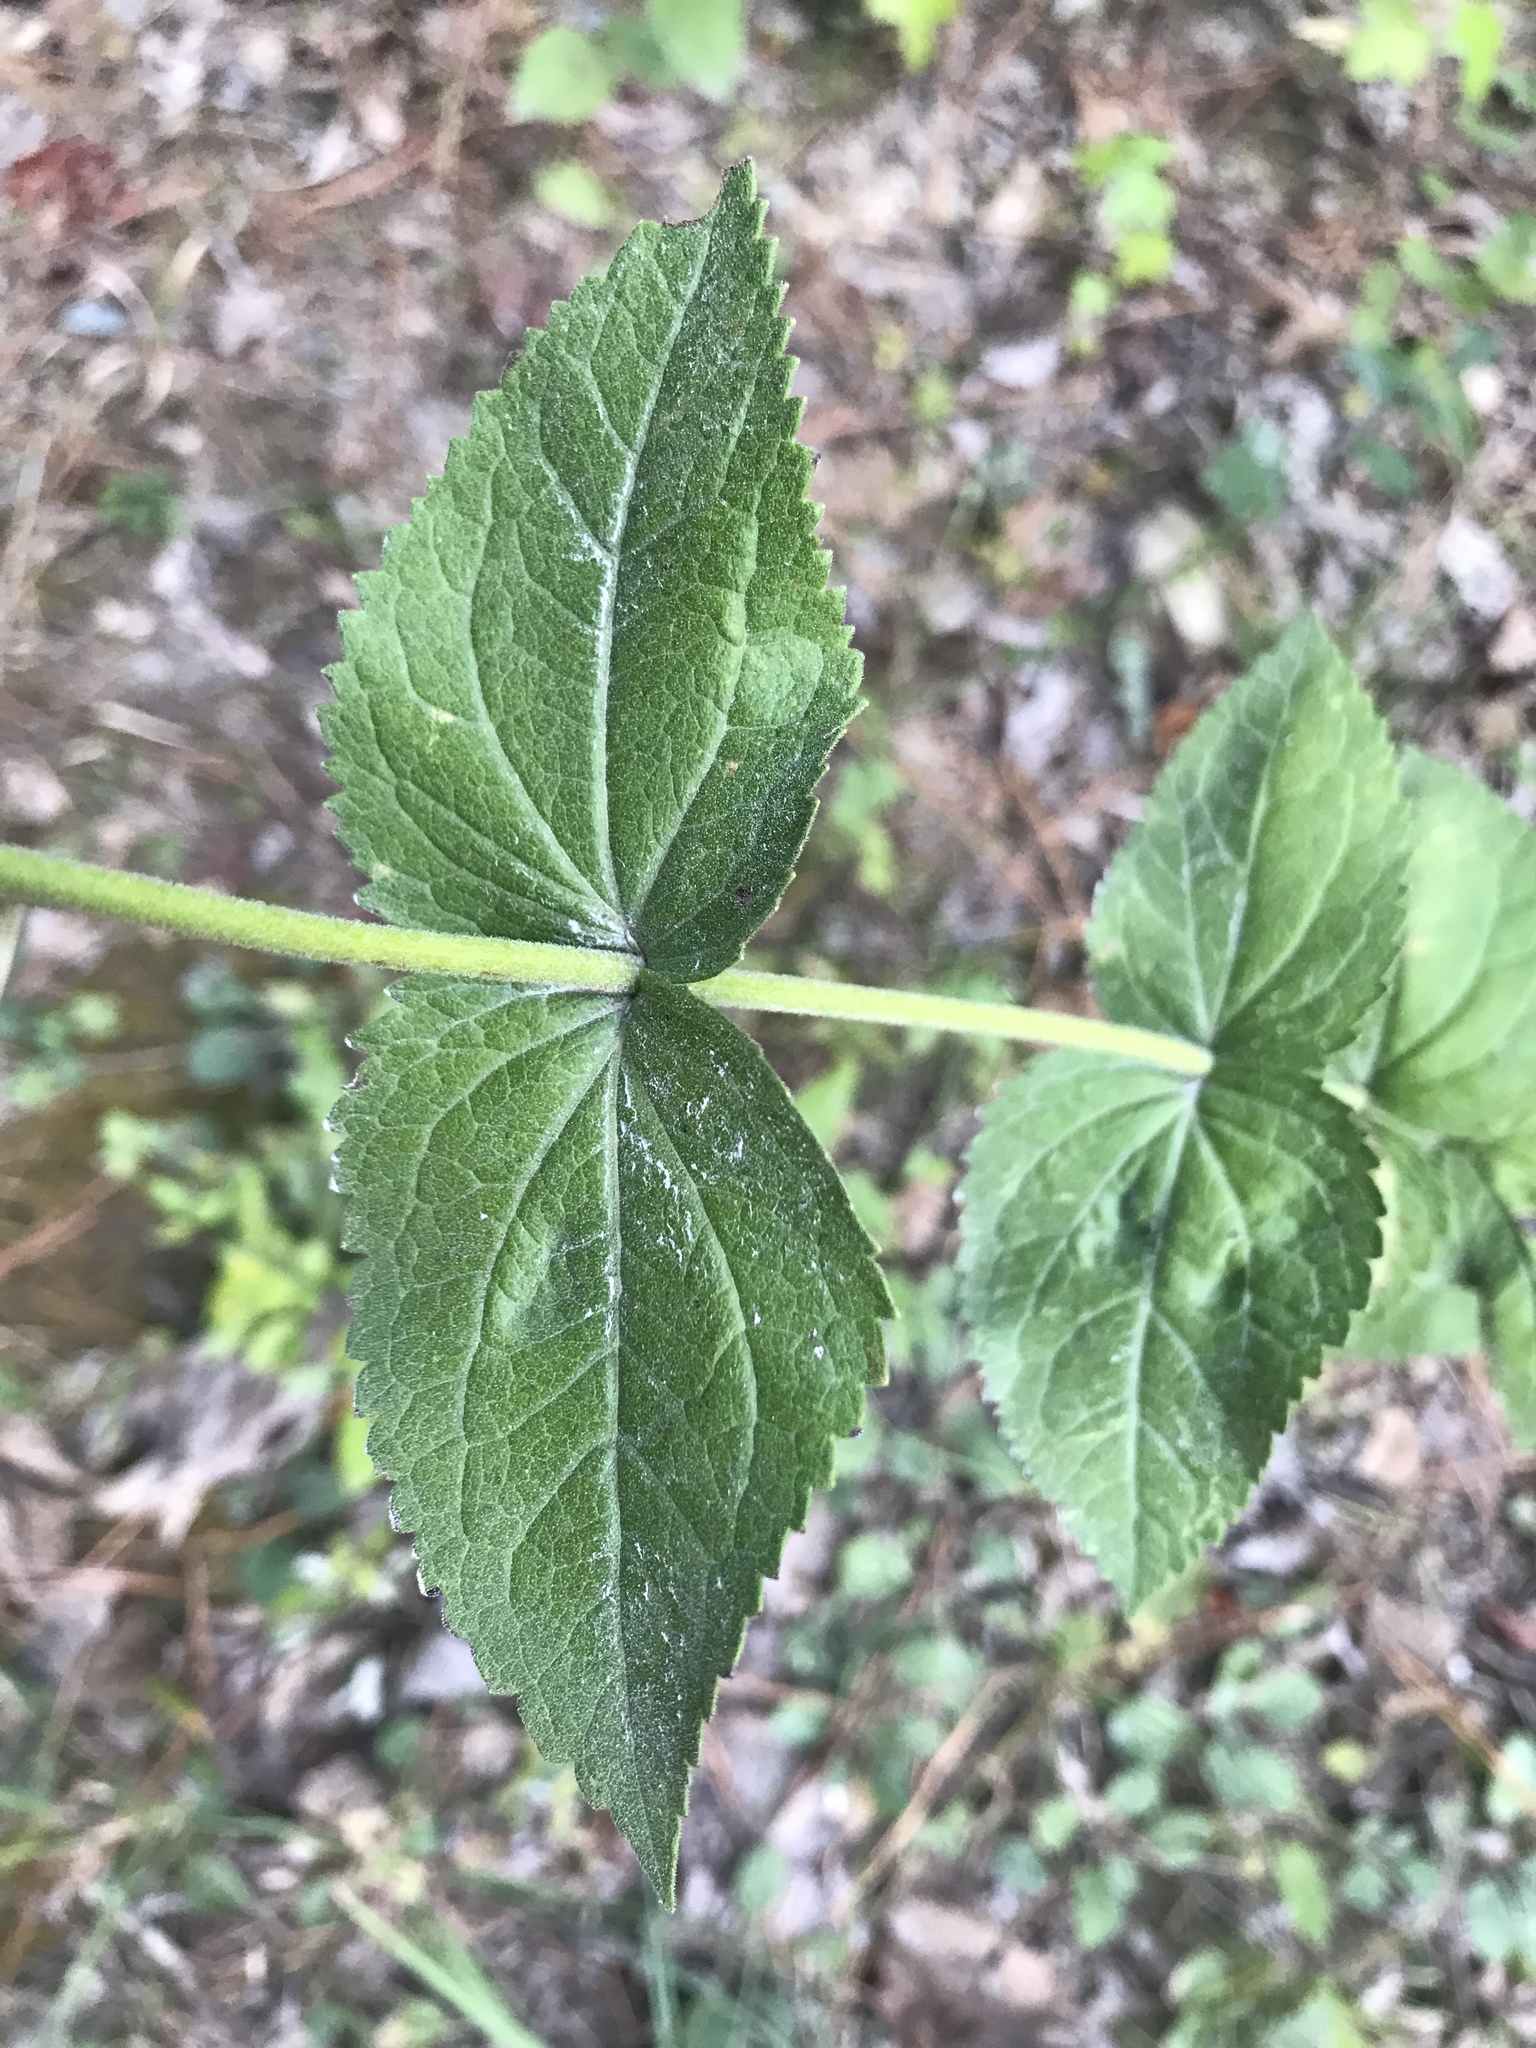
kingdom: Plantae
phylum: Tracheophyta
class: Magnoliopsida
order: Asterales
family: Asteraceae
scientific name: Asteraceae
